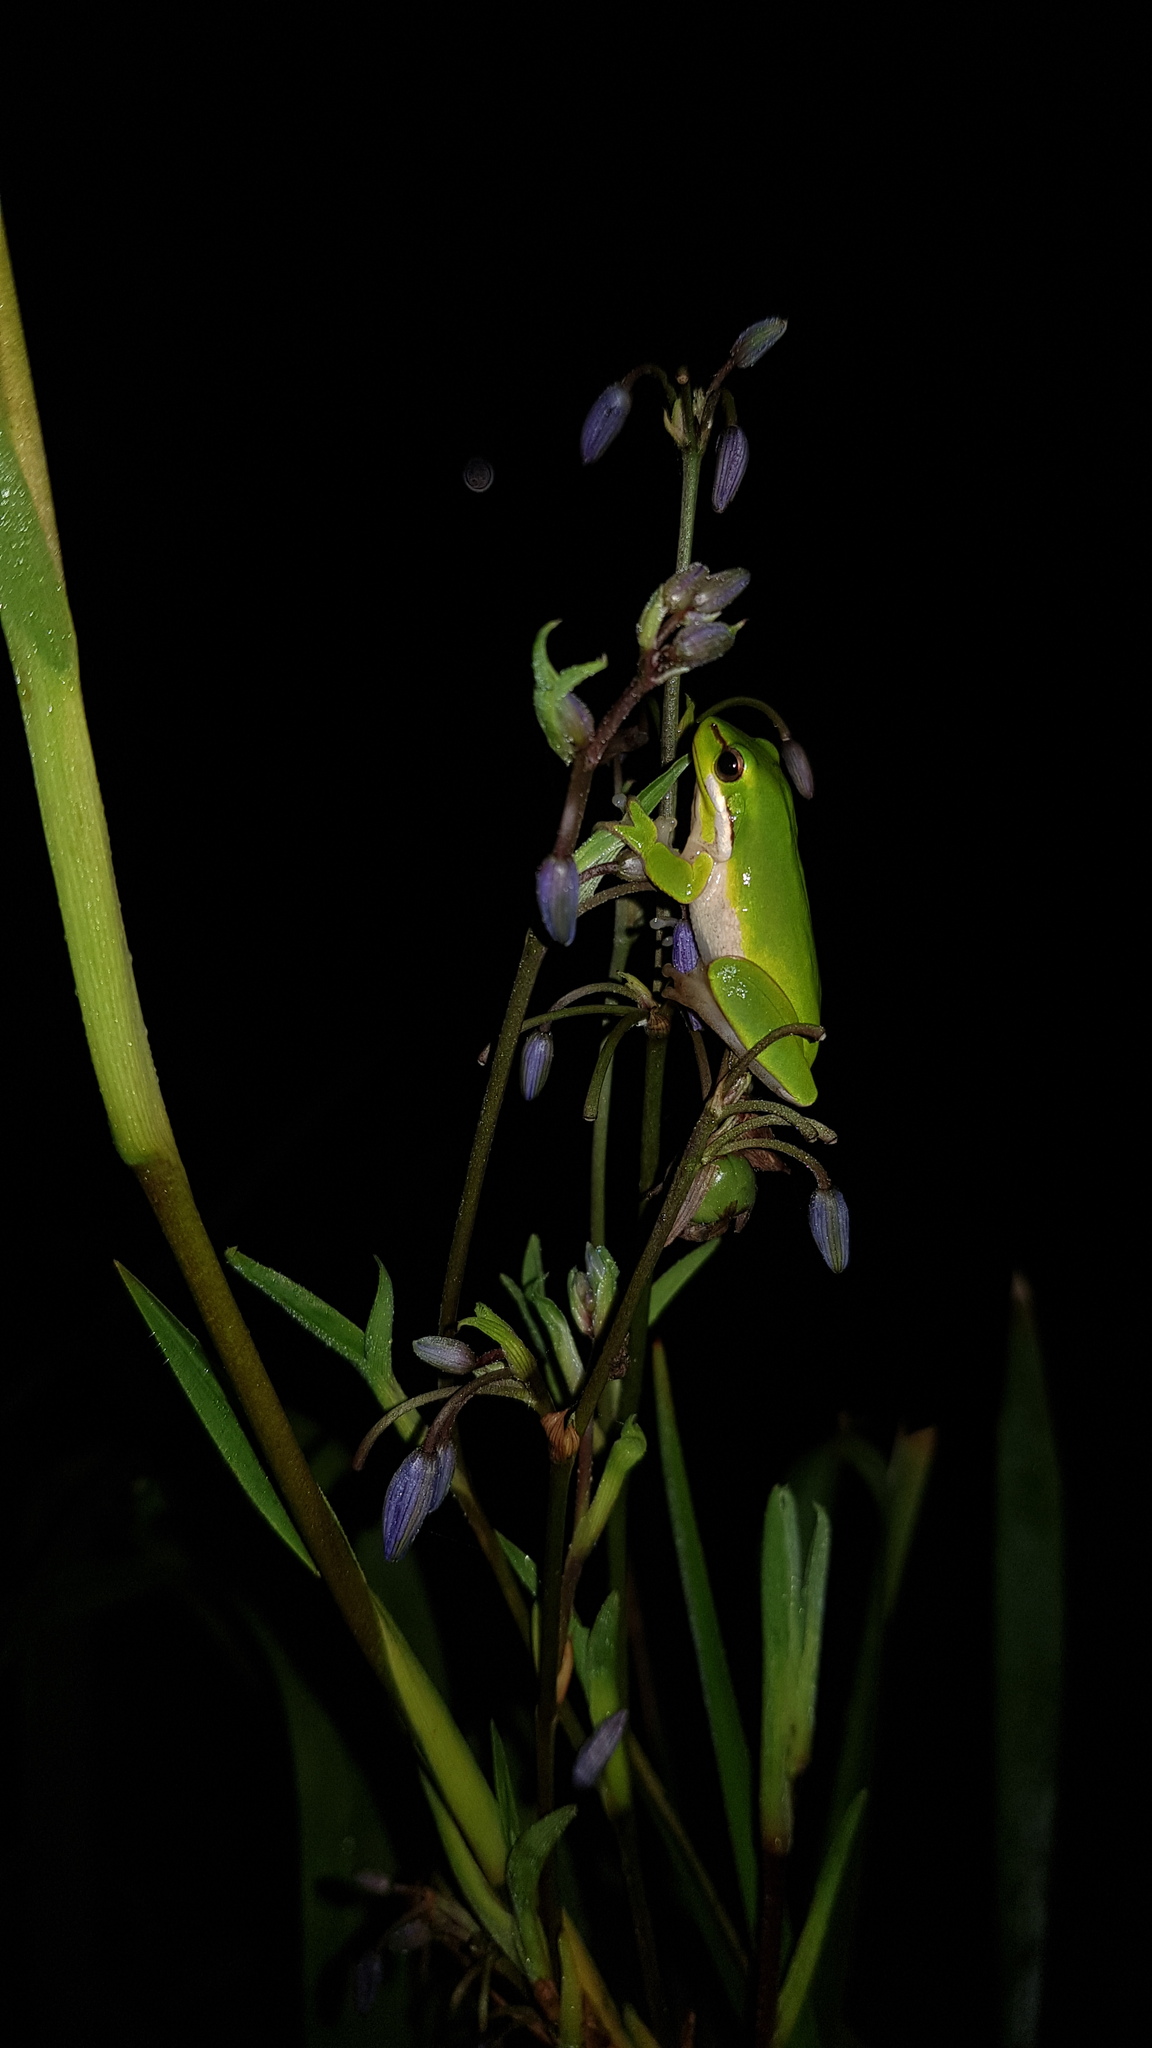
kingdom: Animalia
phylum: Chordata
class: Amphibia
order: Anura
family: Pelodryadidae
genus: Litoria
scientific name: Litoria fallax
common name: Eastern dwarf treefrog
